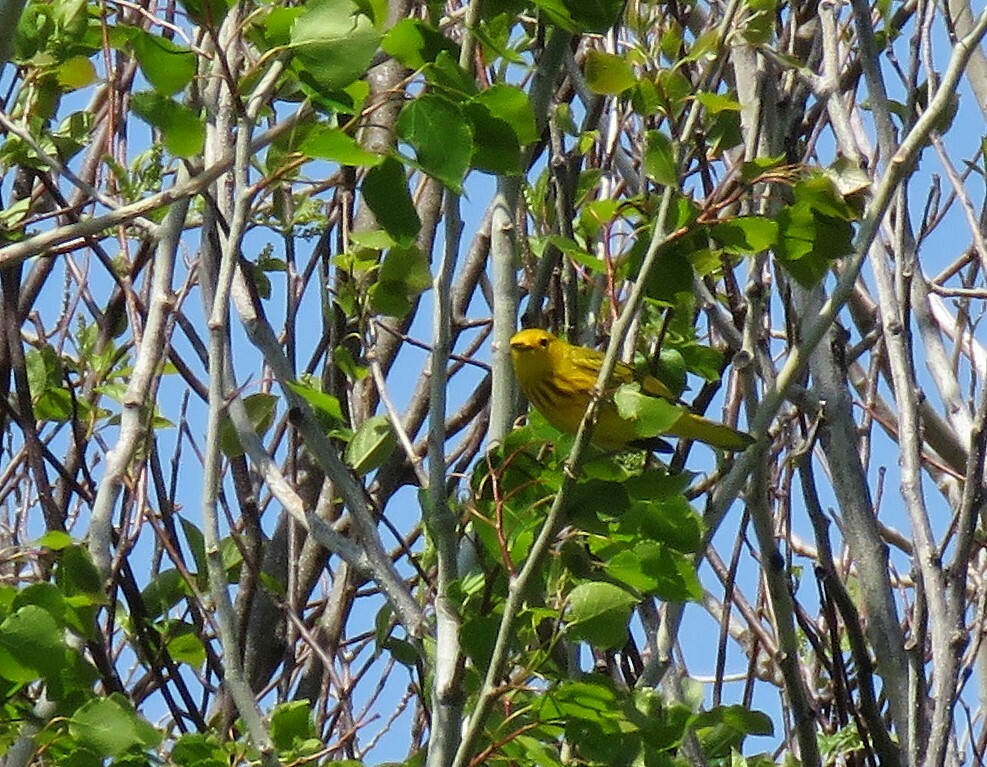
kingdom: Animalia
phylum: Chordata
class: Aves
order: Passeriformes
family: Parulidae
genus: Setophaga
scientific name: Setophaga petechia
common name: Yellow warbler
